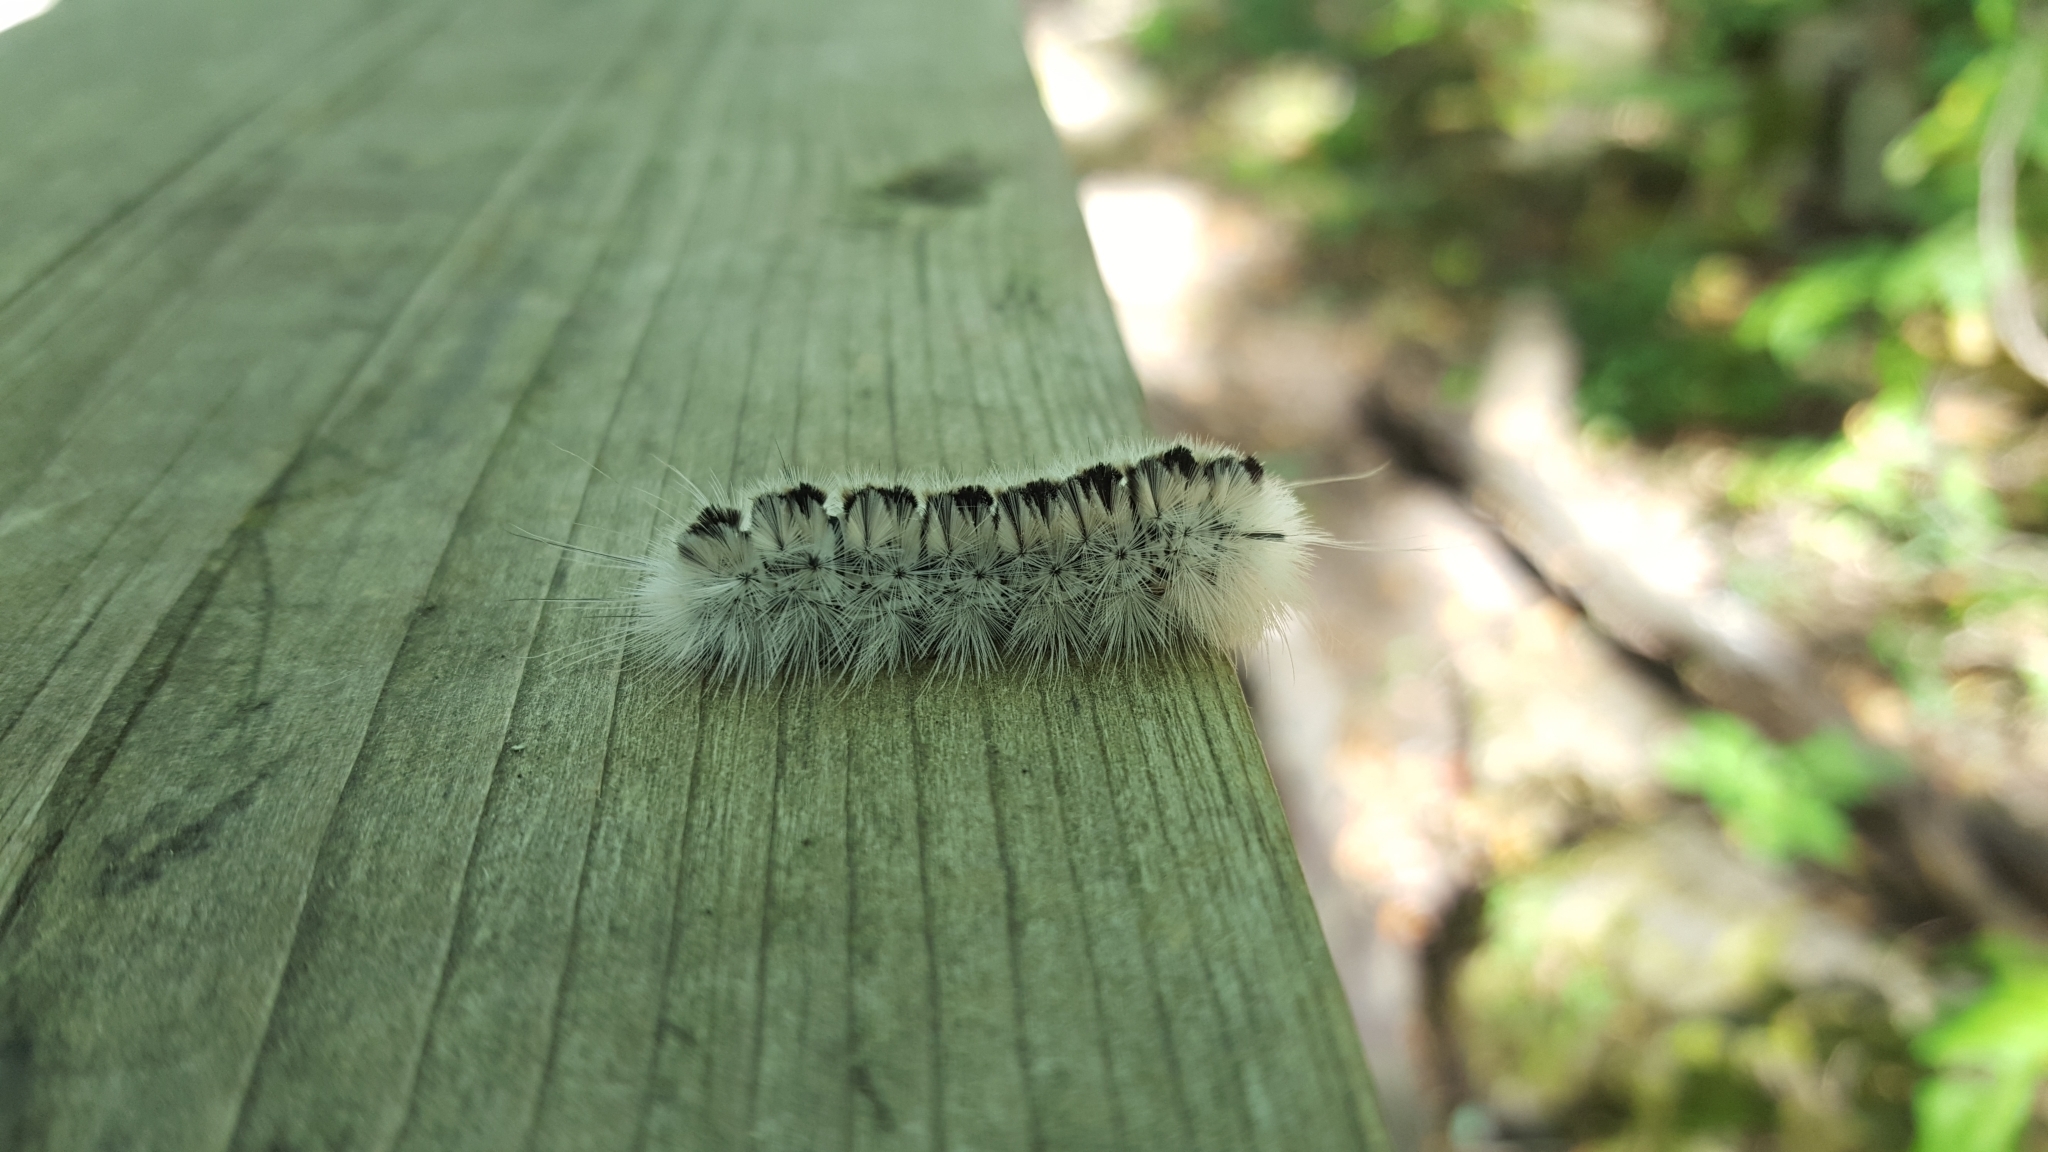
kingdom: Animalia
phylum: Arthropoda
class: Insecta
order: Lepidoptera
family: Erebidae
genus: Lophocampa
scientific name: Lophocampa caryae
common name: Hickory tussock moth
